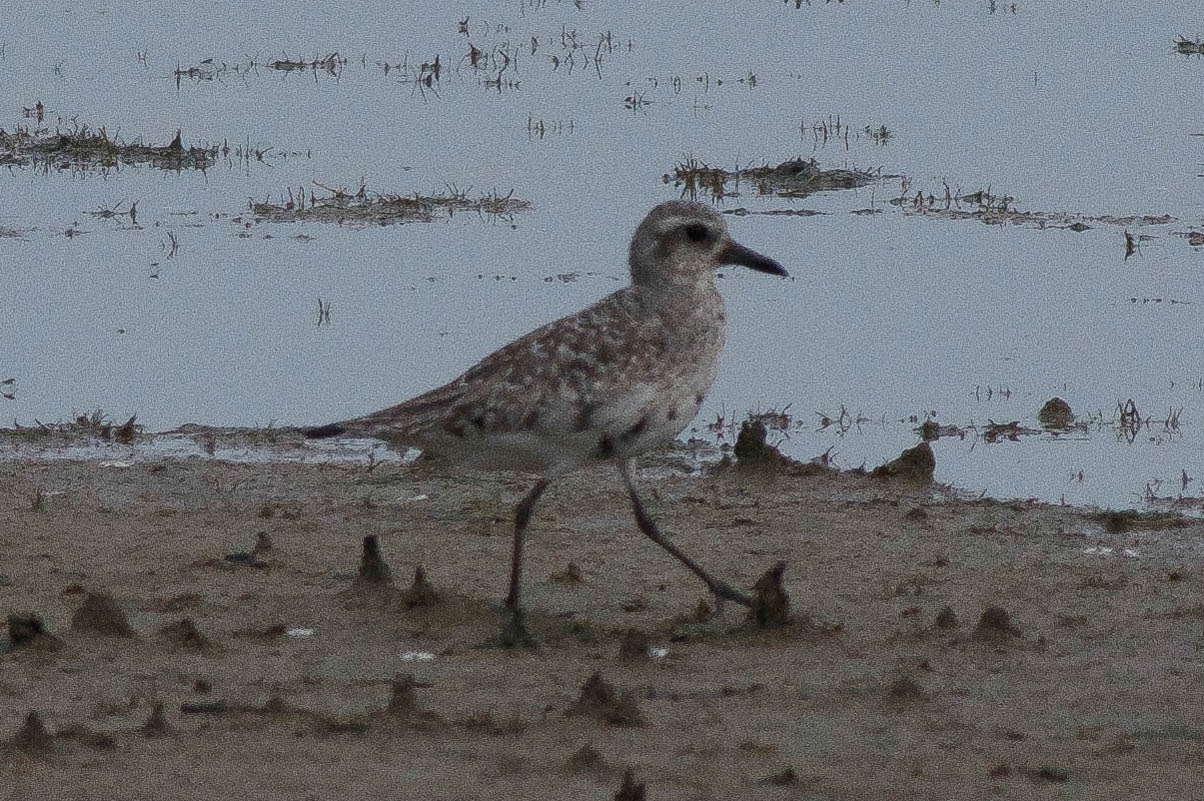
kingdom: Animalia
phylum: Chordata
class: Aves
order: Charadriiformes
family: Charadriidae
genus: Pluvialis
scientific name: Pluvialis squatarola
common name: Grey plover
